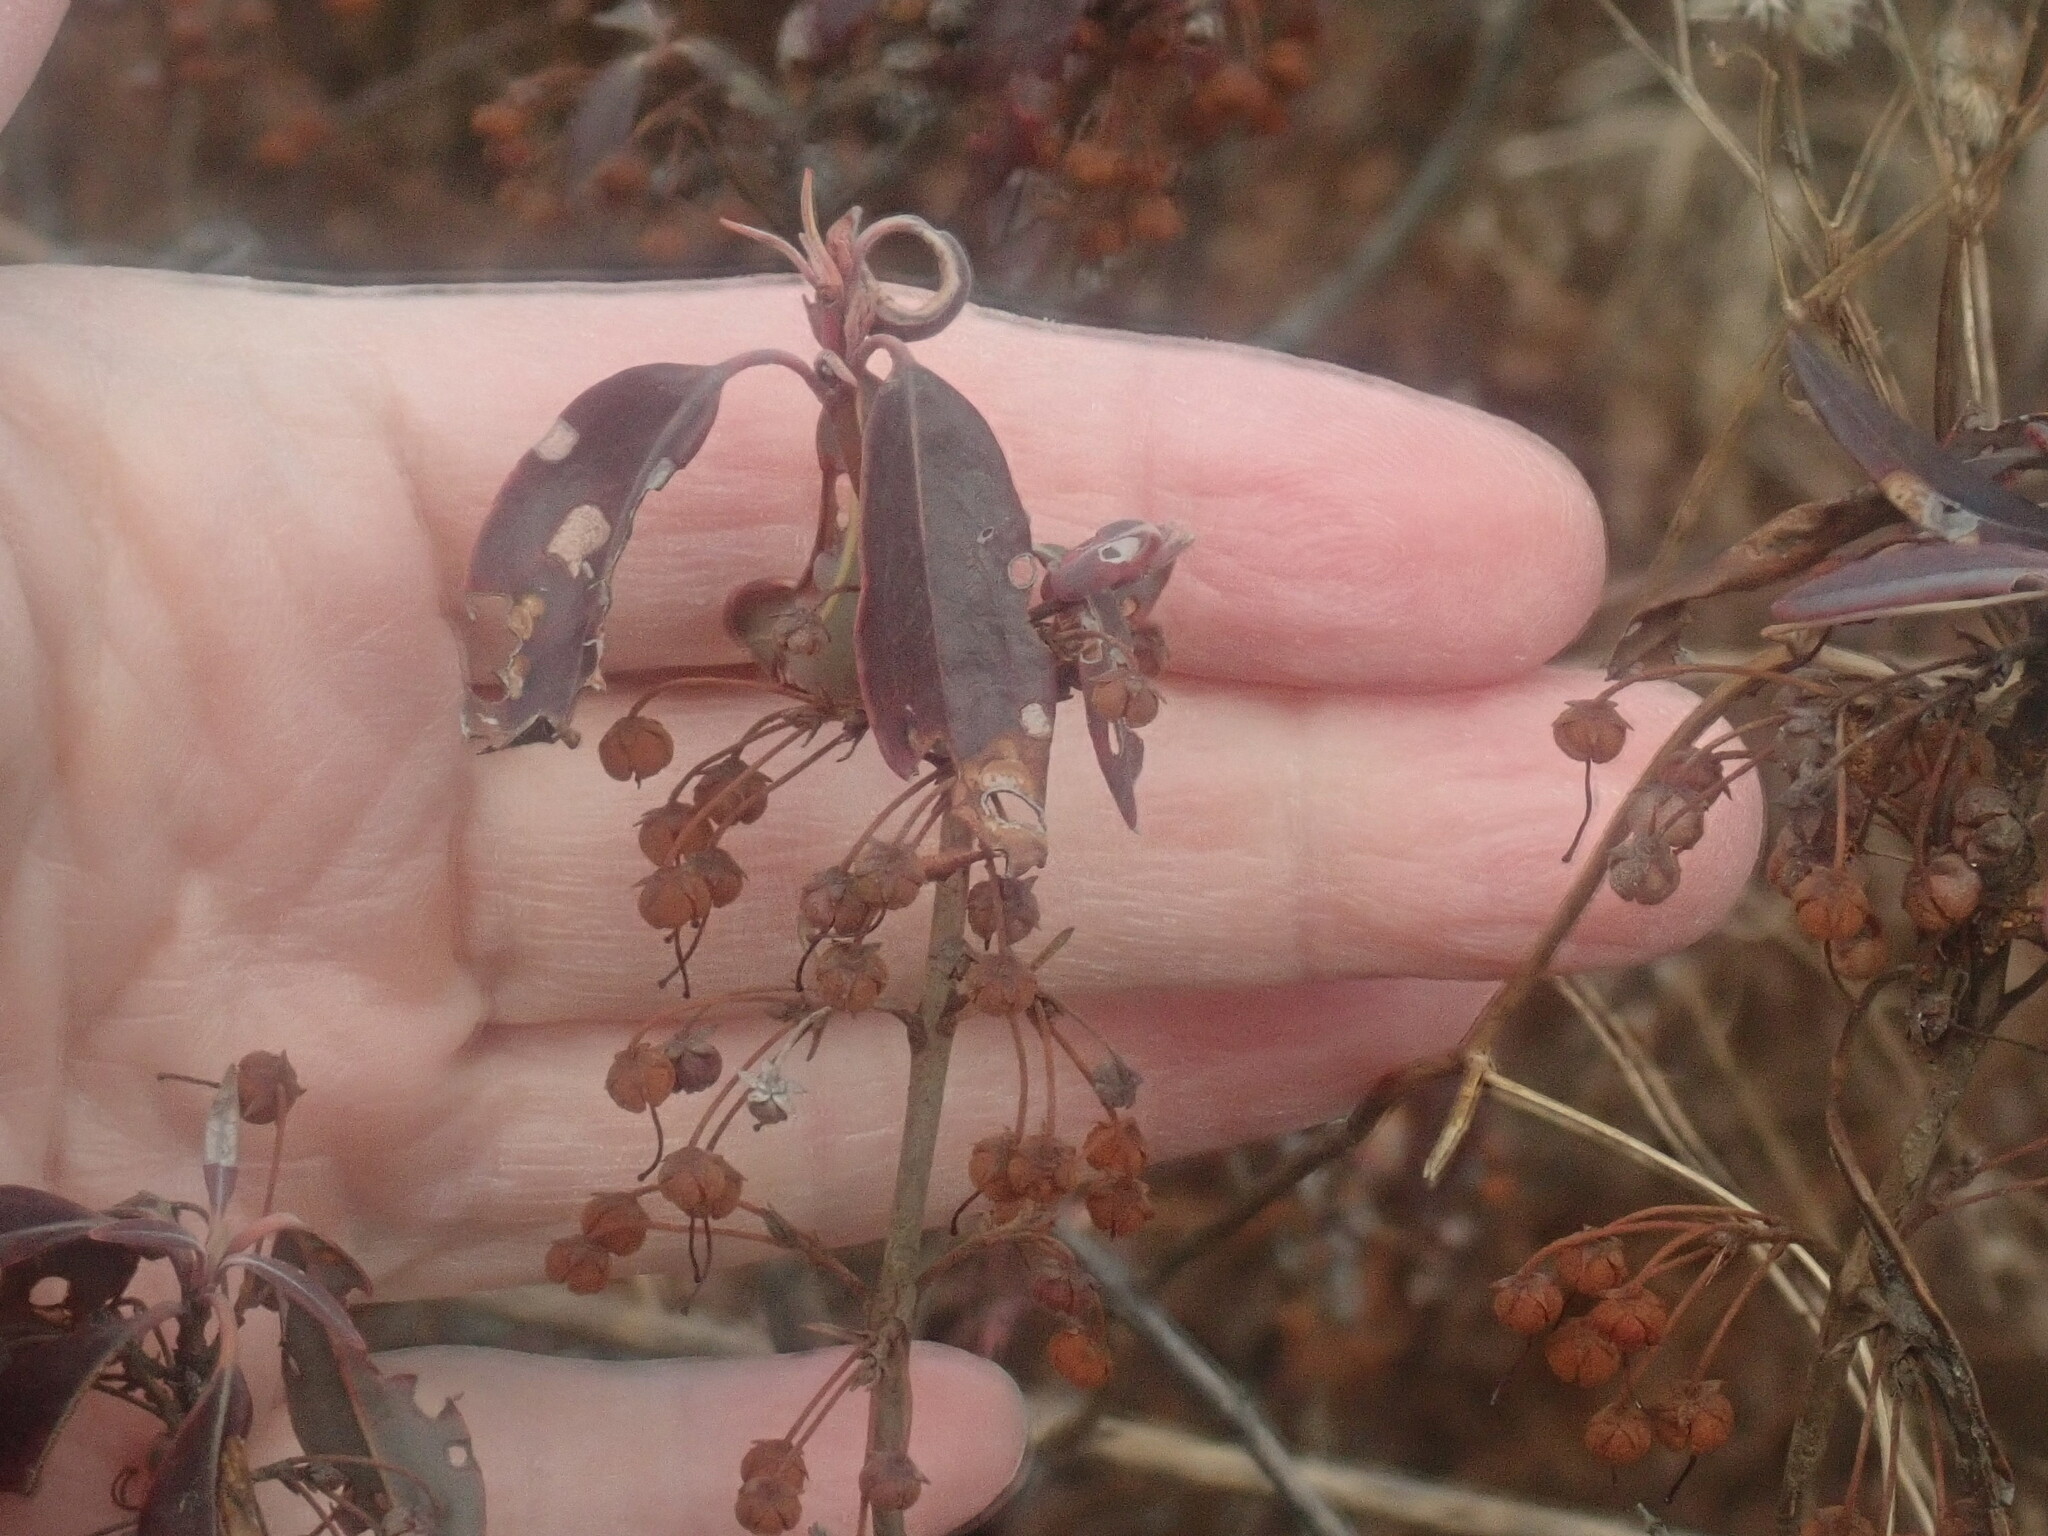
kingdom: Plantae
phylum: Tracheophyta
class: Magnoliopsida
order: Ericales
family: Ericaceae
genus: Kalmia
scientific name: Kalmia angustifolia
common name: Sheep-laurel
